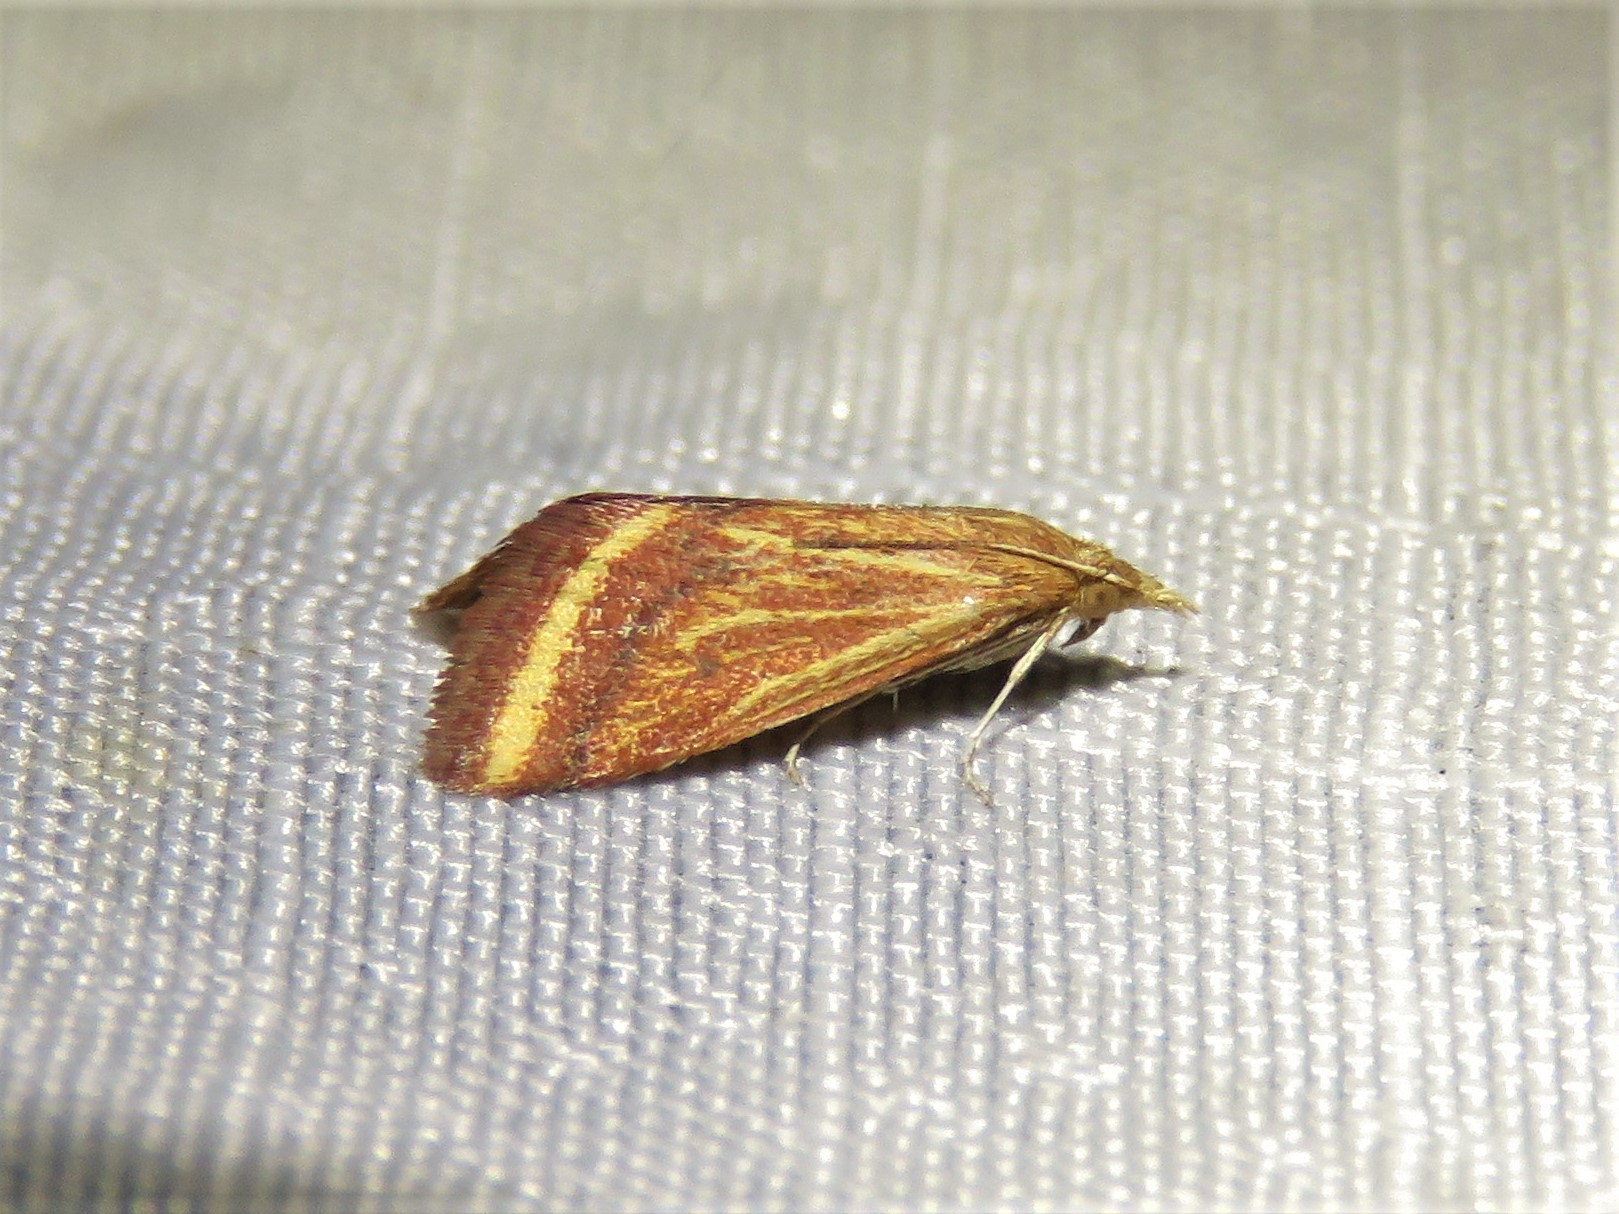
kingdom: Animalia
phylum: Arthropoda
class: Insecta
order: Lepidoptera
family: Crambidae
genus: Microtheoris
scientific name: Microtheoris ophionalis
